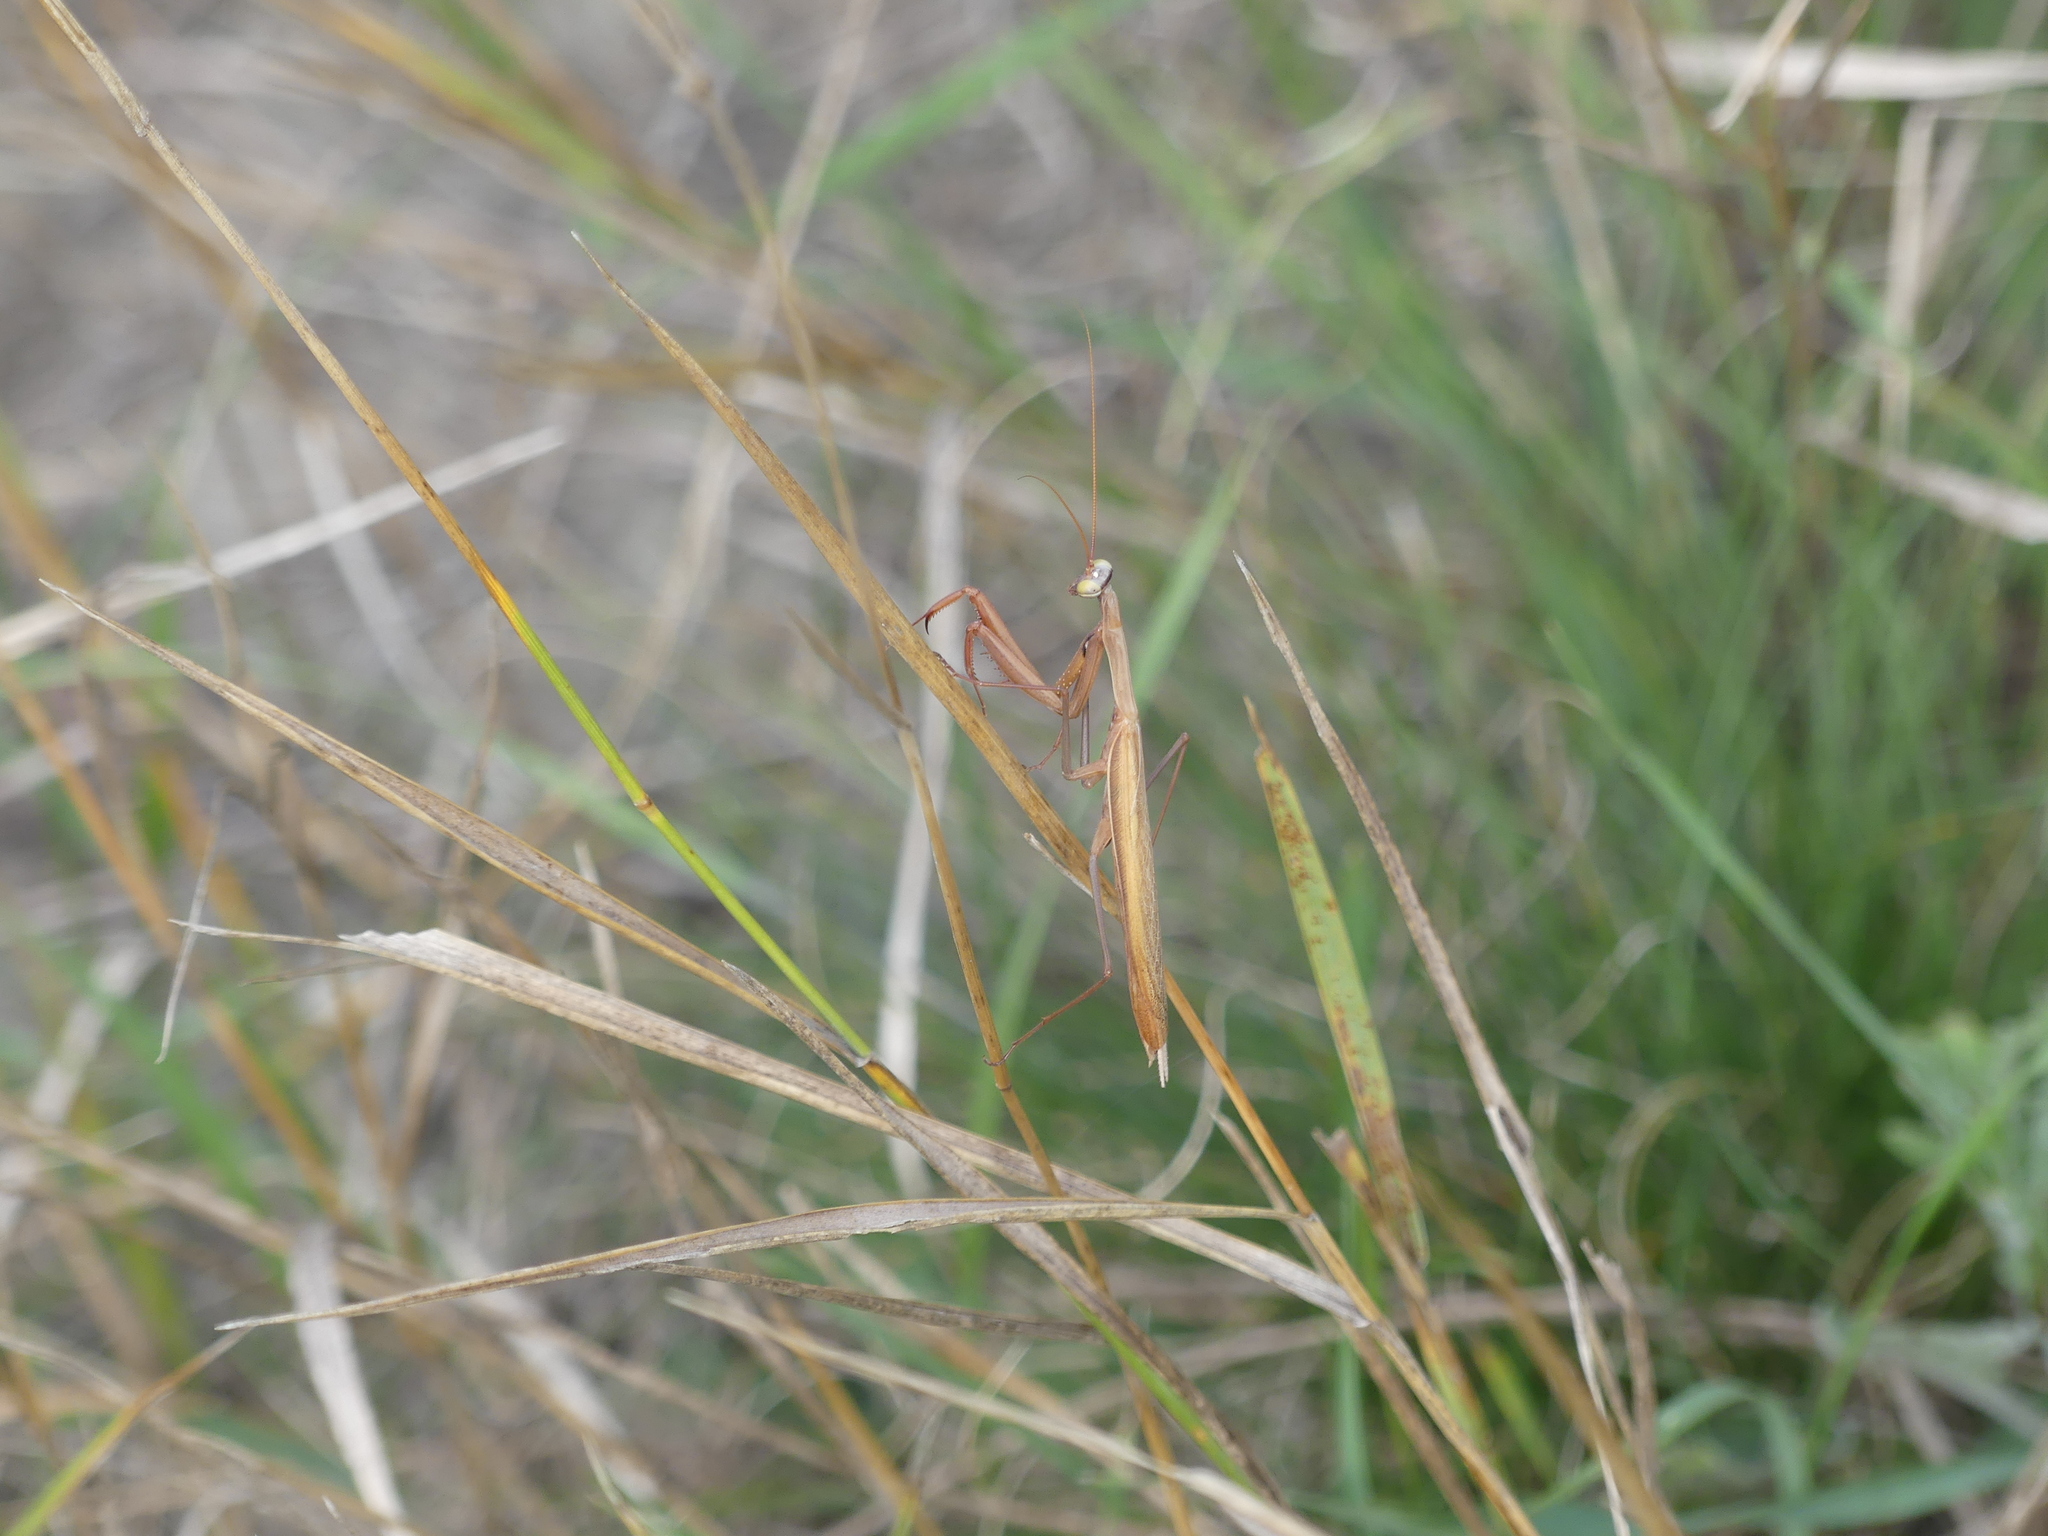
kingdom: Animalia
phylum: Arthropoda
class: Insecta
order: Mantodea
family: Mantidae
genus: Mantis
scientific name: Mantis religiosa
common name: Praying mantis
